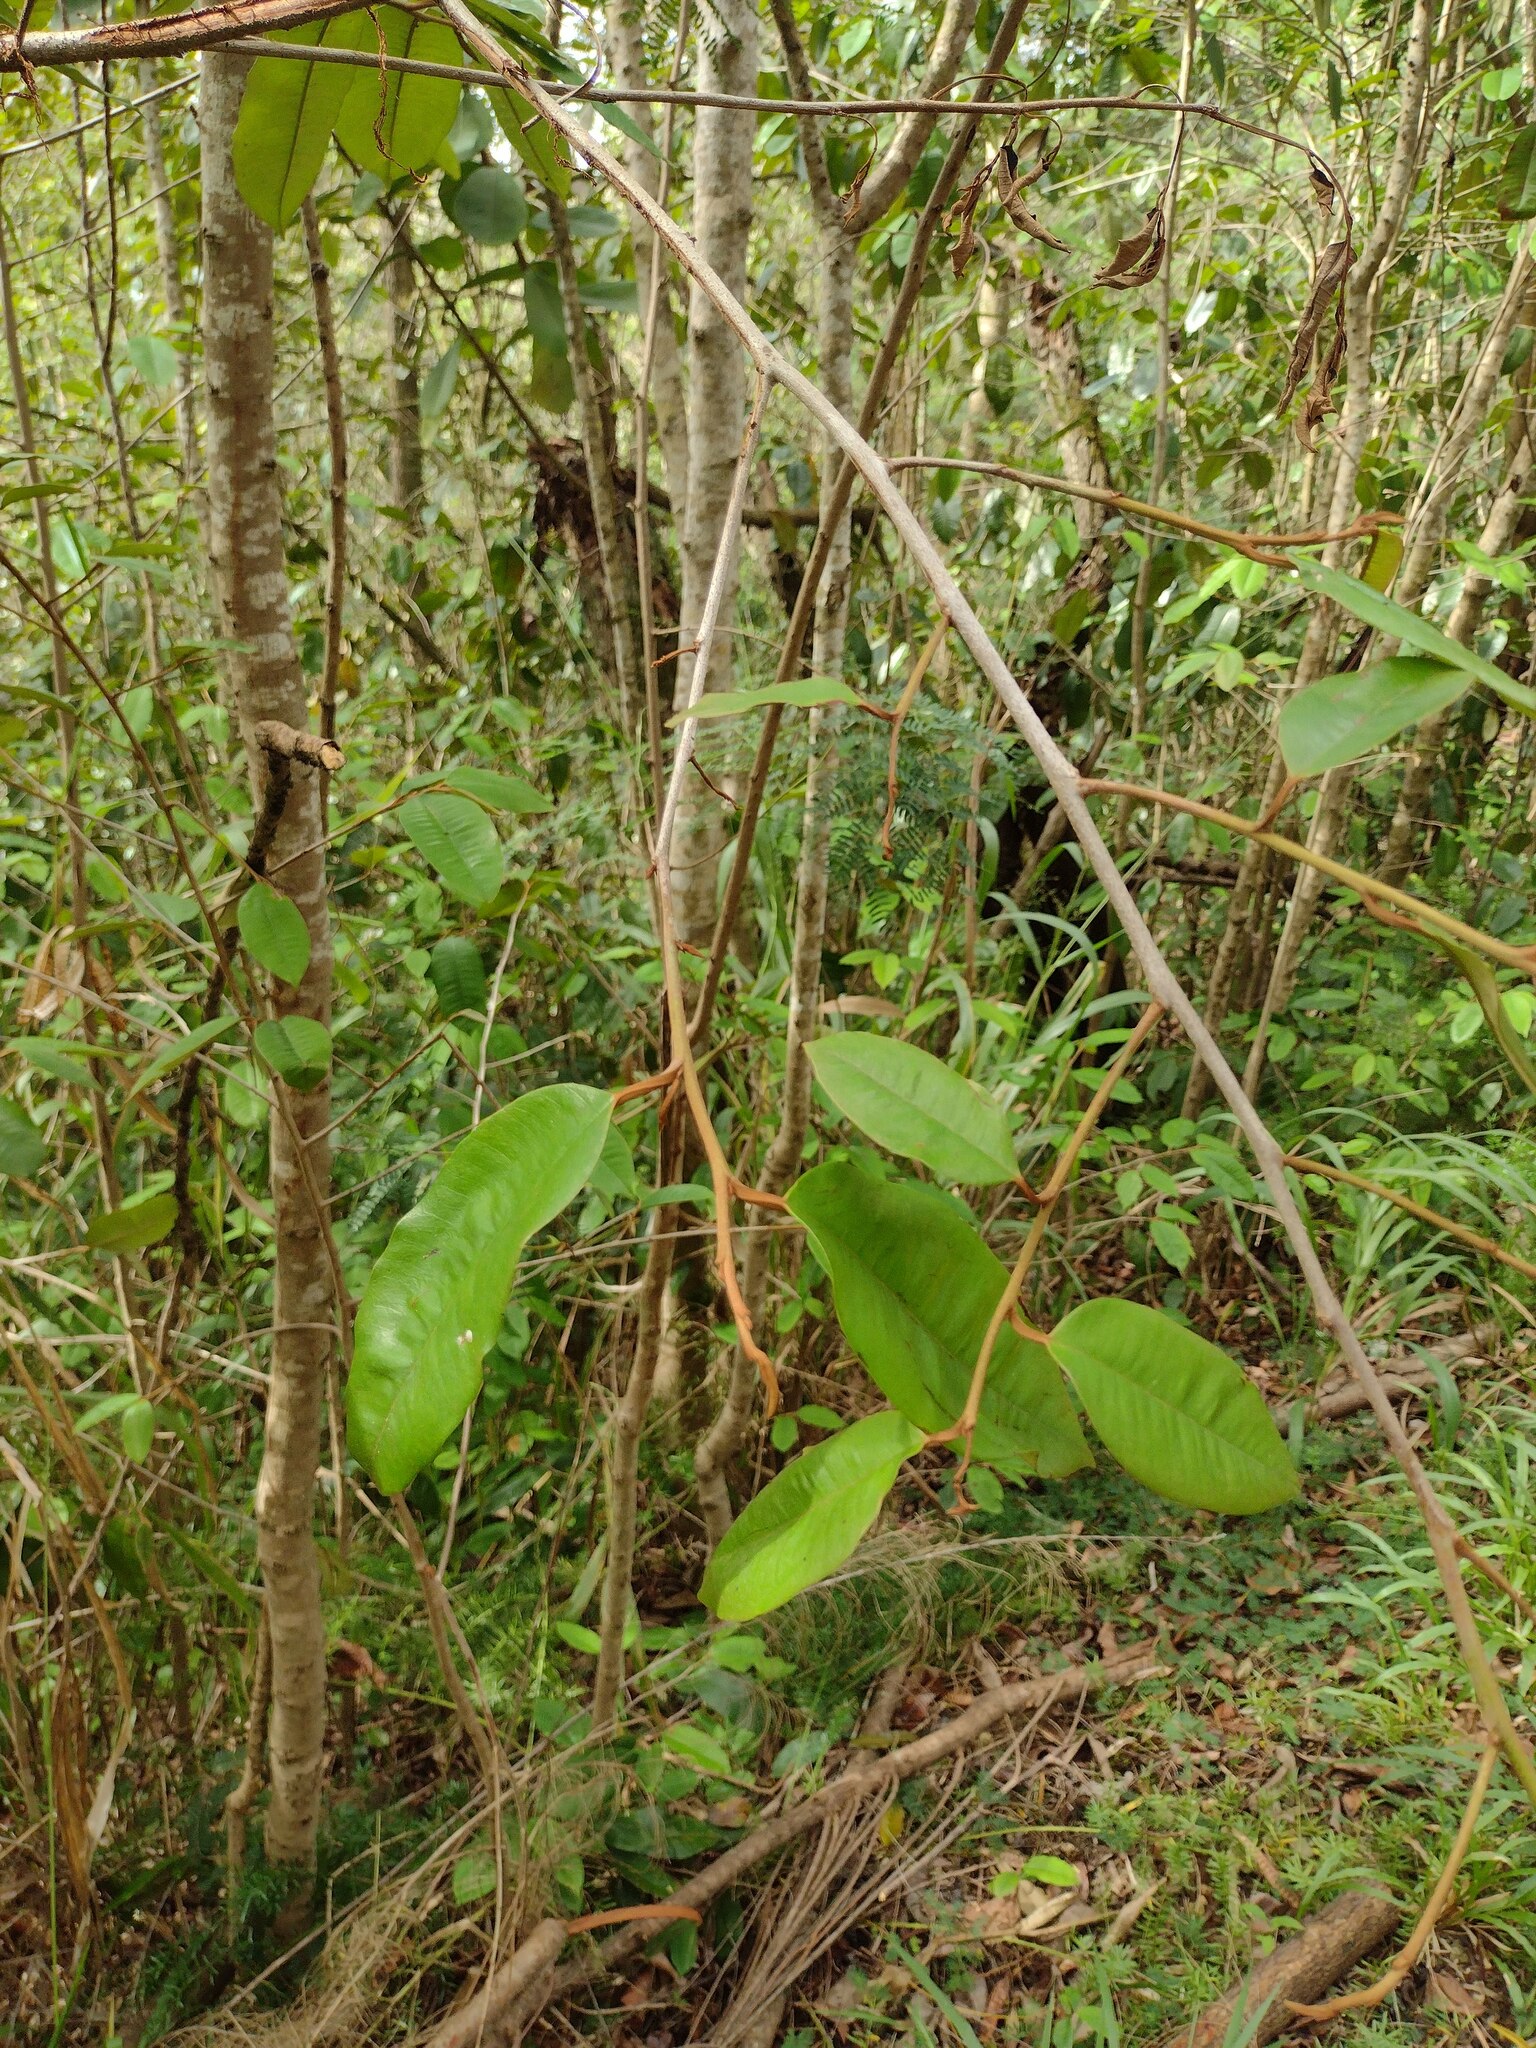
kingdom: Plantae
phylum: Tracheophyta
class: Magnoliopsida
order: Ericales
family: Sapotaceae
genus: Chrysophyllum
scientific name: Chrysophyllum oliviforme
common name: Satinleaf
